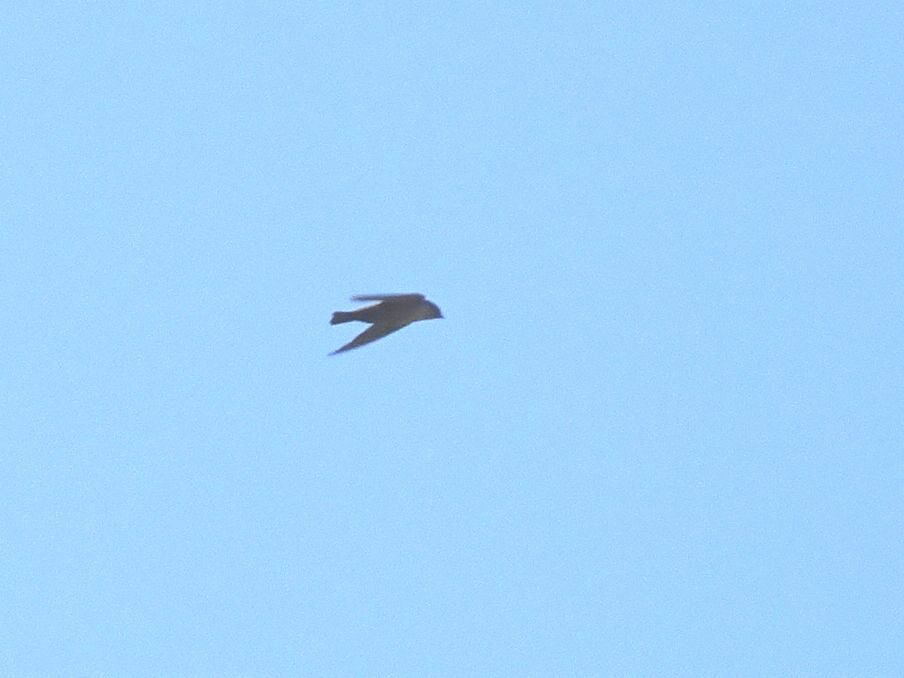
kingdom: Animalia
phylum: Chordata
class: Aves
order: Passeriformes
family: Hirundinidae
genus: Ptyonoprogne
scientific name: Ptyonoprogne fuligula
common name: Rock martin
